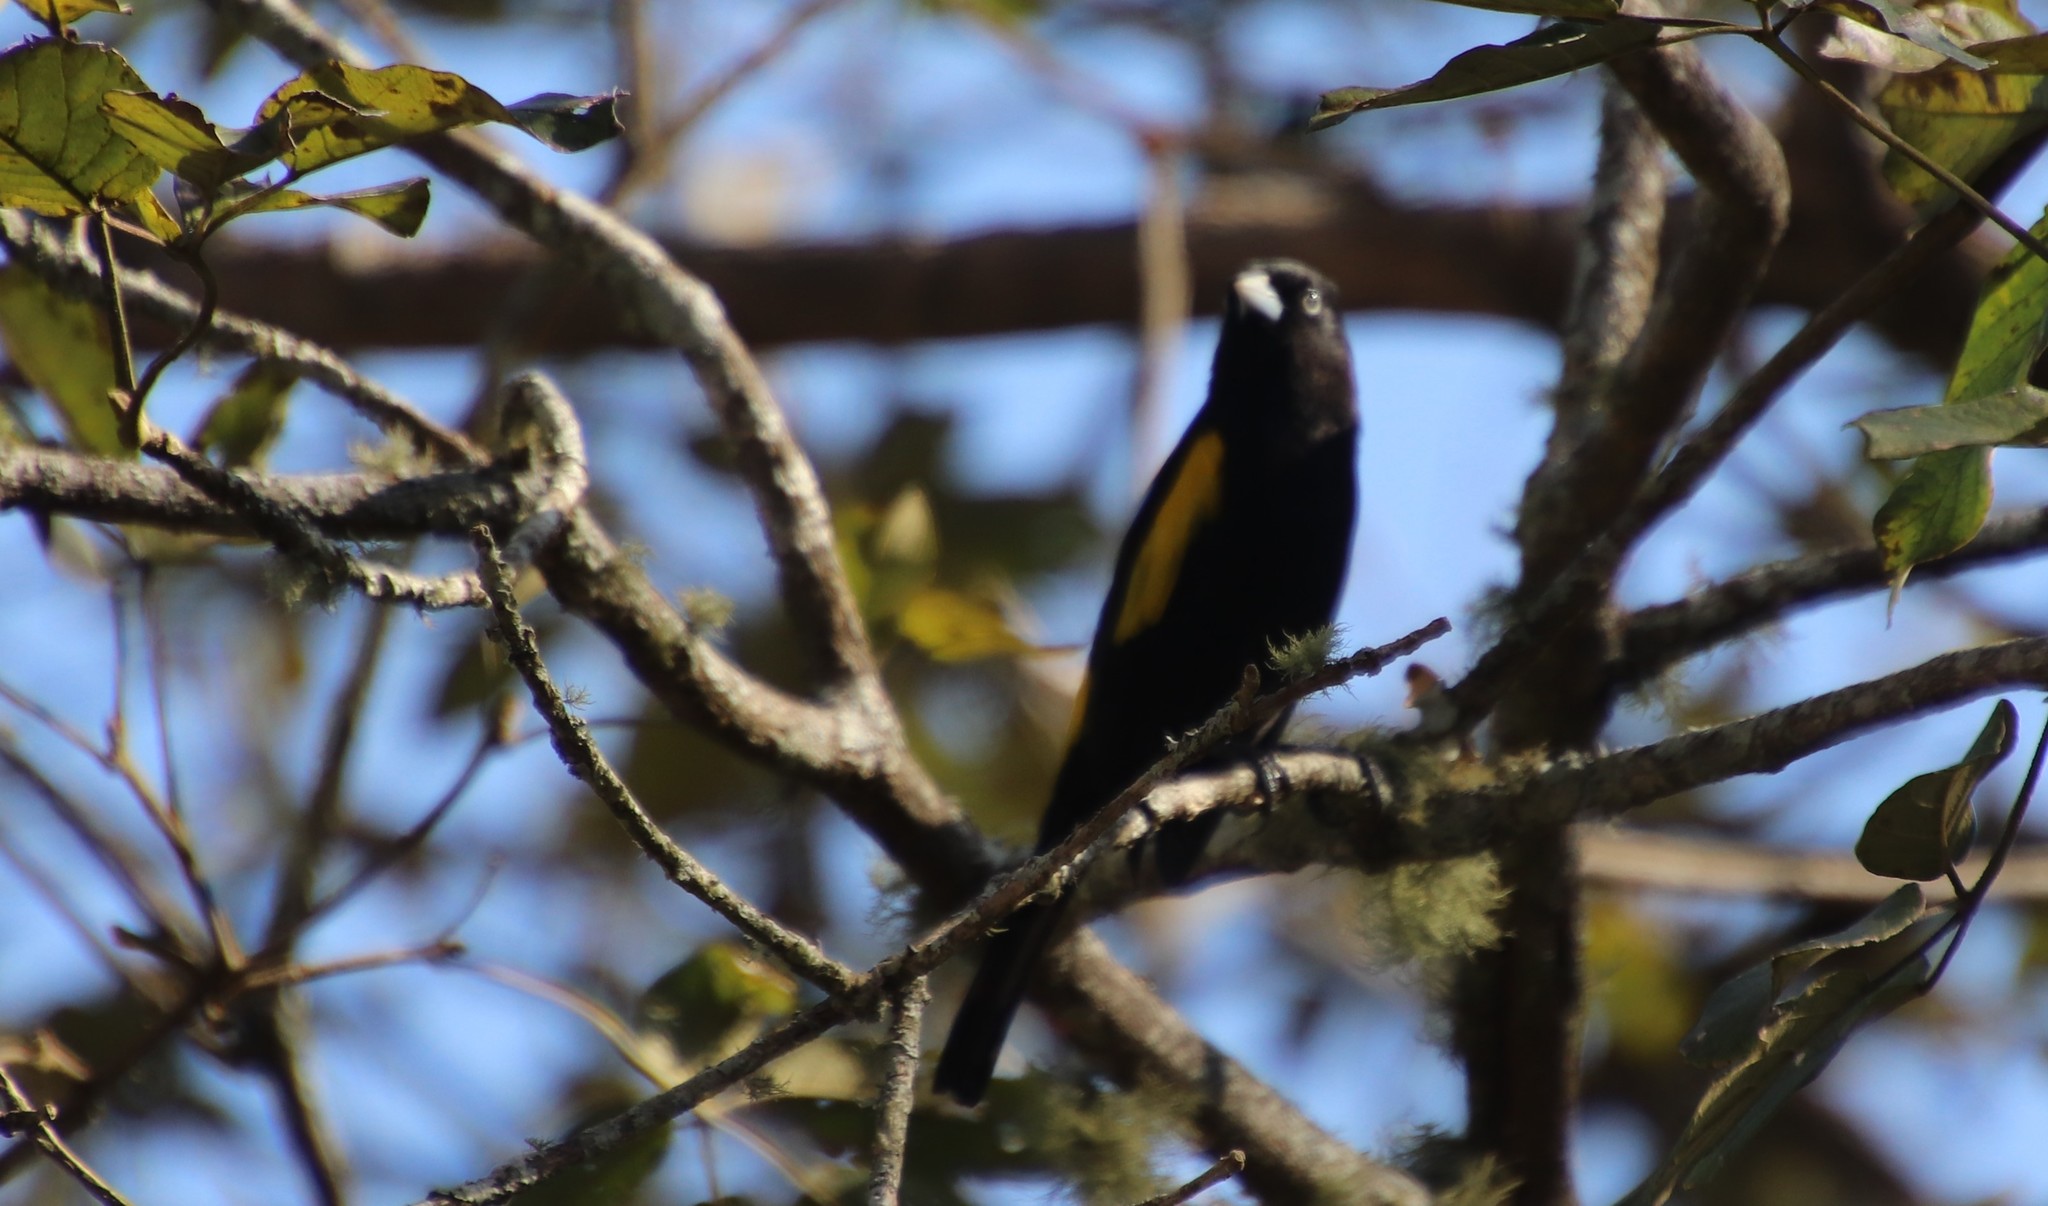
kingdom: Animalia
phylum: Chordata
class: Aves
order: Passeriformes
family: Icteridae
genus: Cacicus
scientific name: Cacicus chrysopterus
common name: Golden-winged cacique
